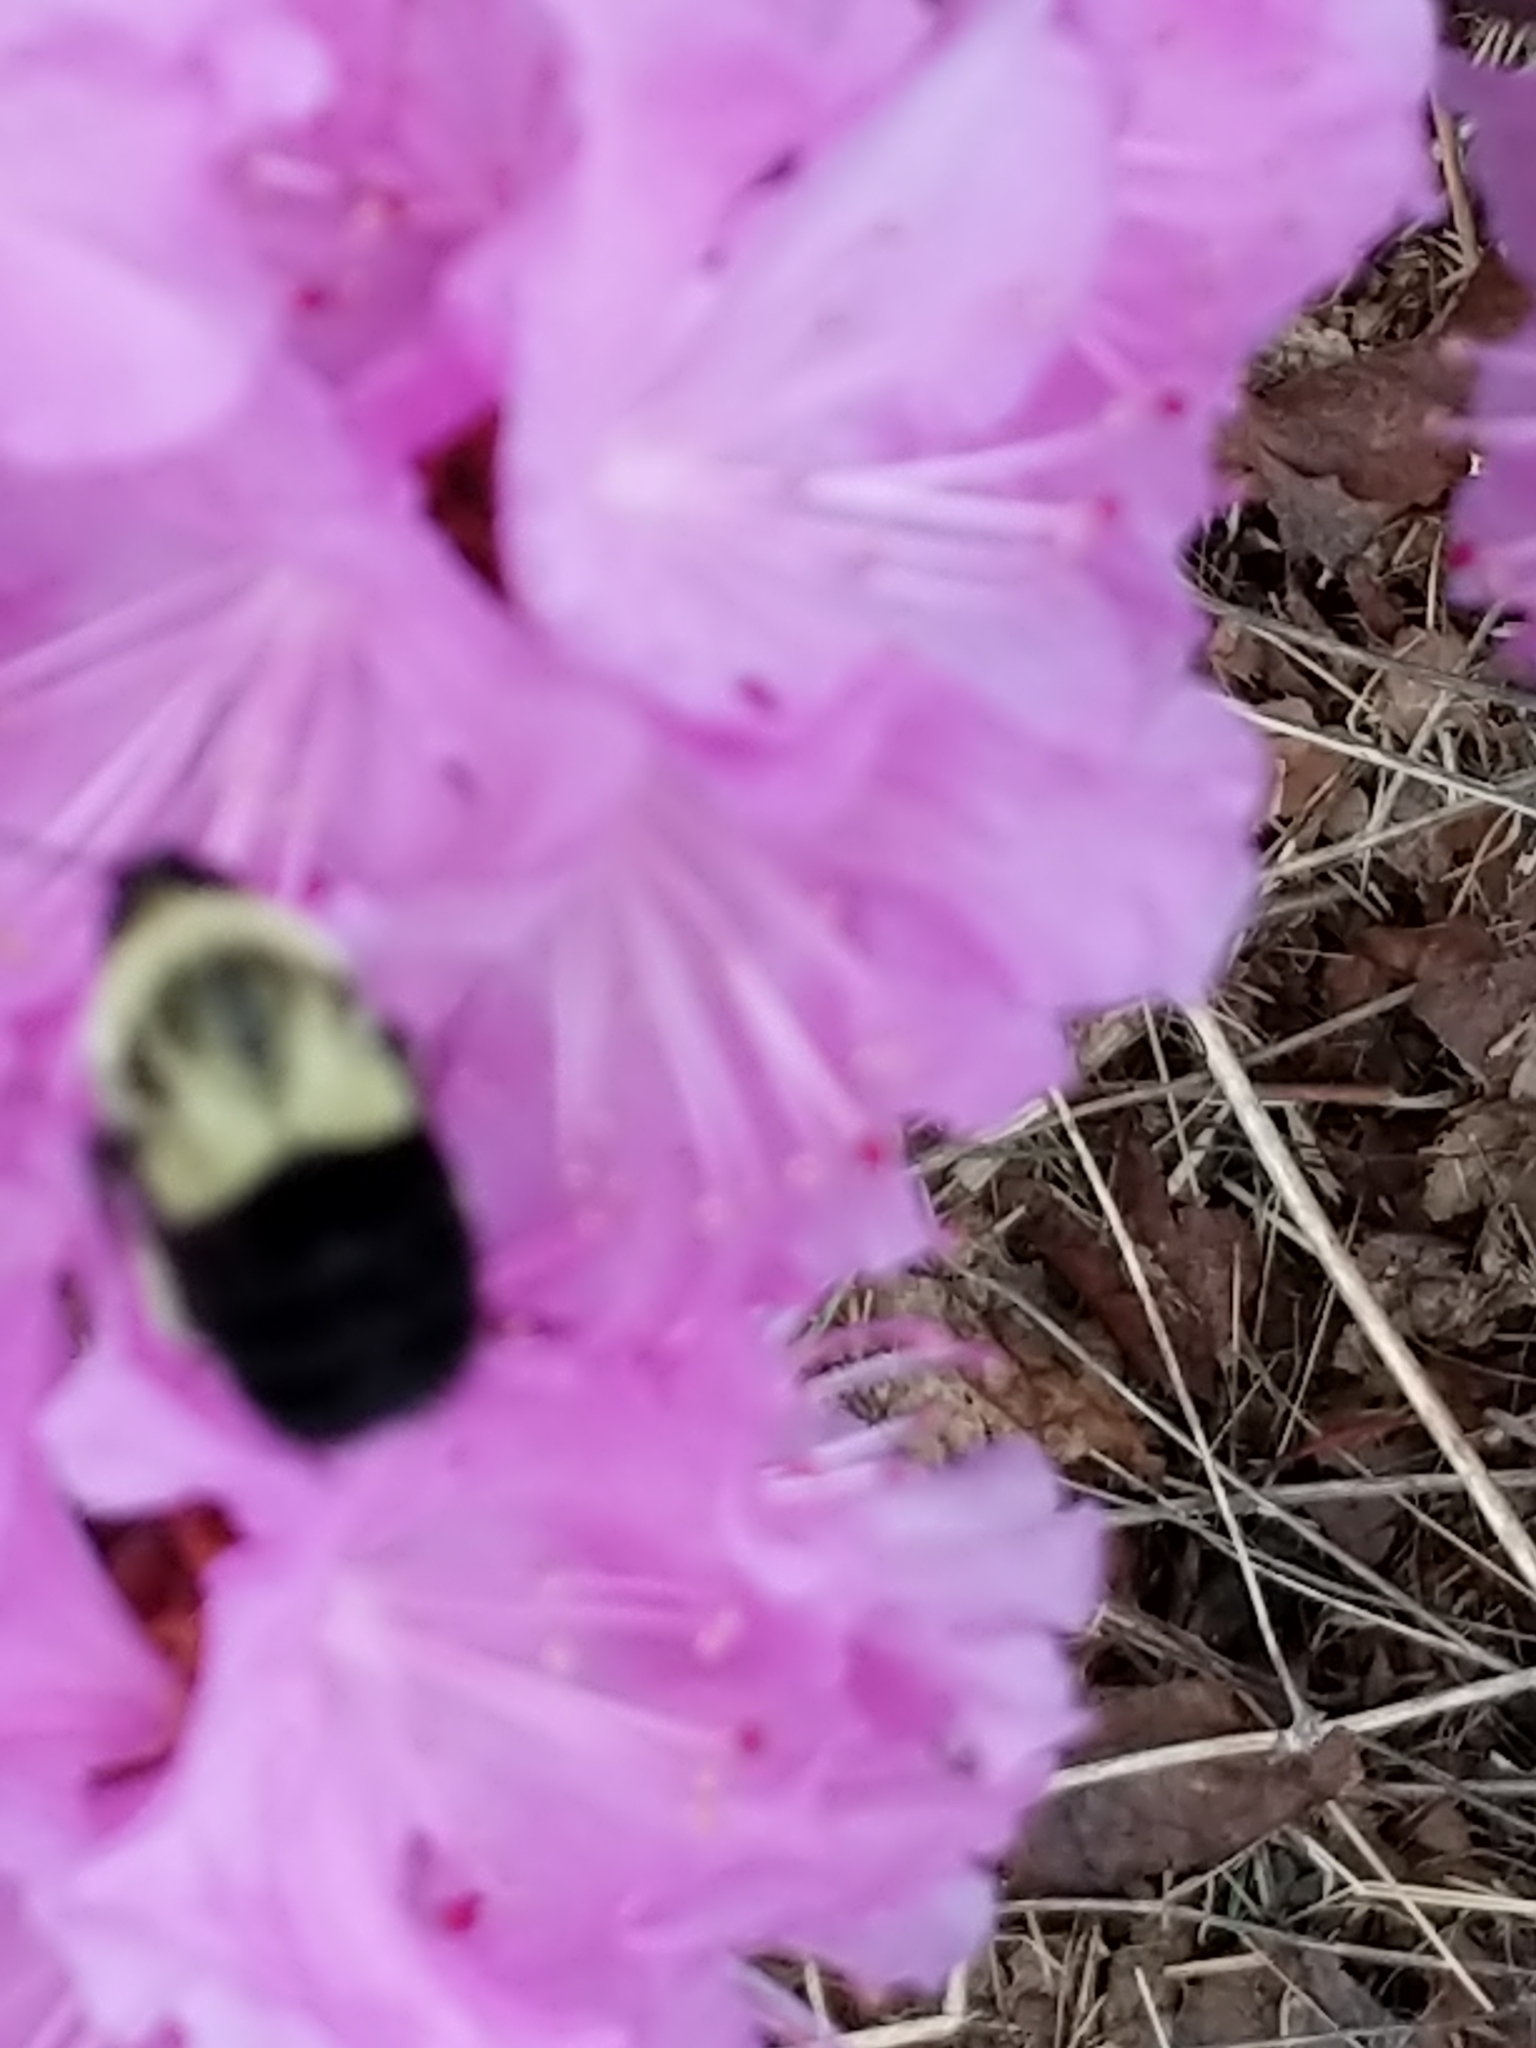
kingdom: Animalia
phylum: Arthropoda
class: Insecta
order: Hymenoptera
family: Apidae
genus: Bombus
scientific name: Bombus impatiens
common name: Common eastern bumble bee
